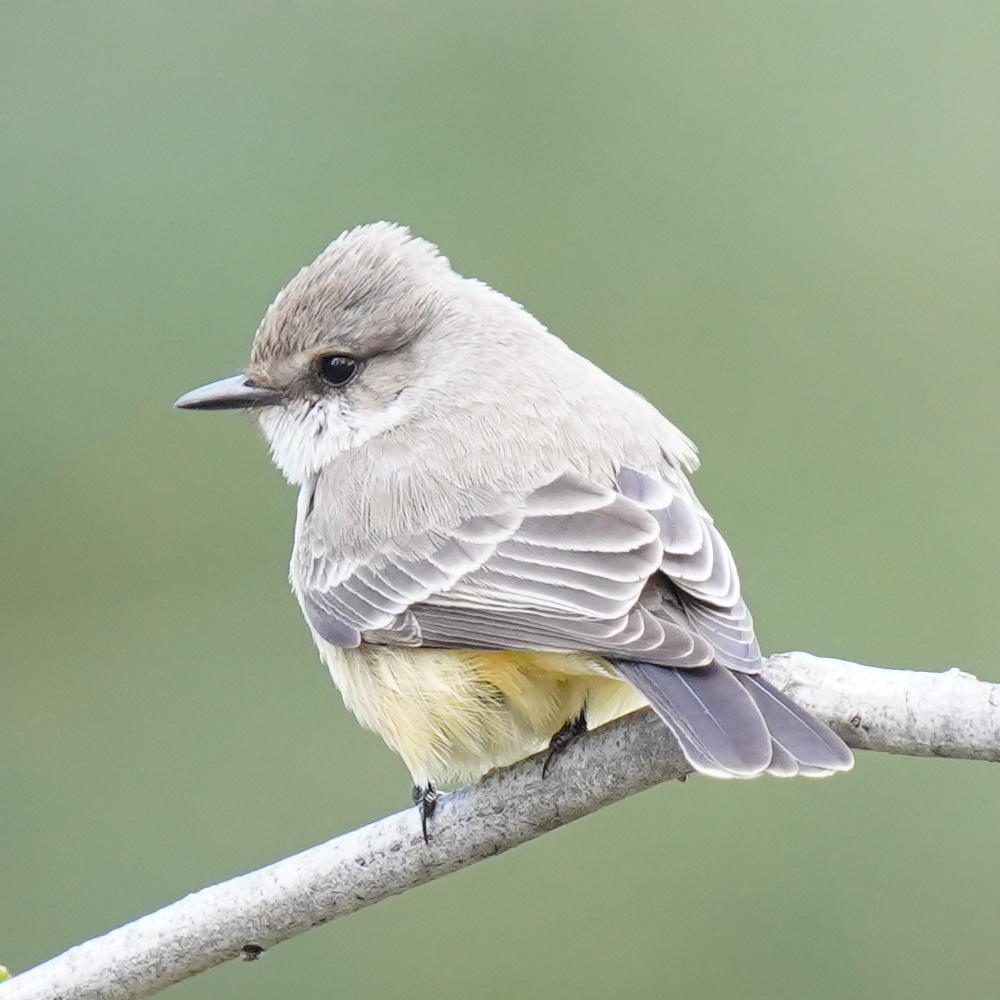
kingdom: Animalia
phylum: Chordata
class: Aves
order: Passeriformes
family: Tyrannidae
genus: Pyrocephalus
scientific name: Pyrocephalus rubinus
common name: Vermilion flycatcher
